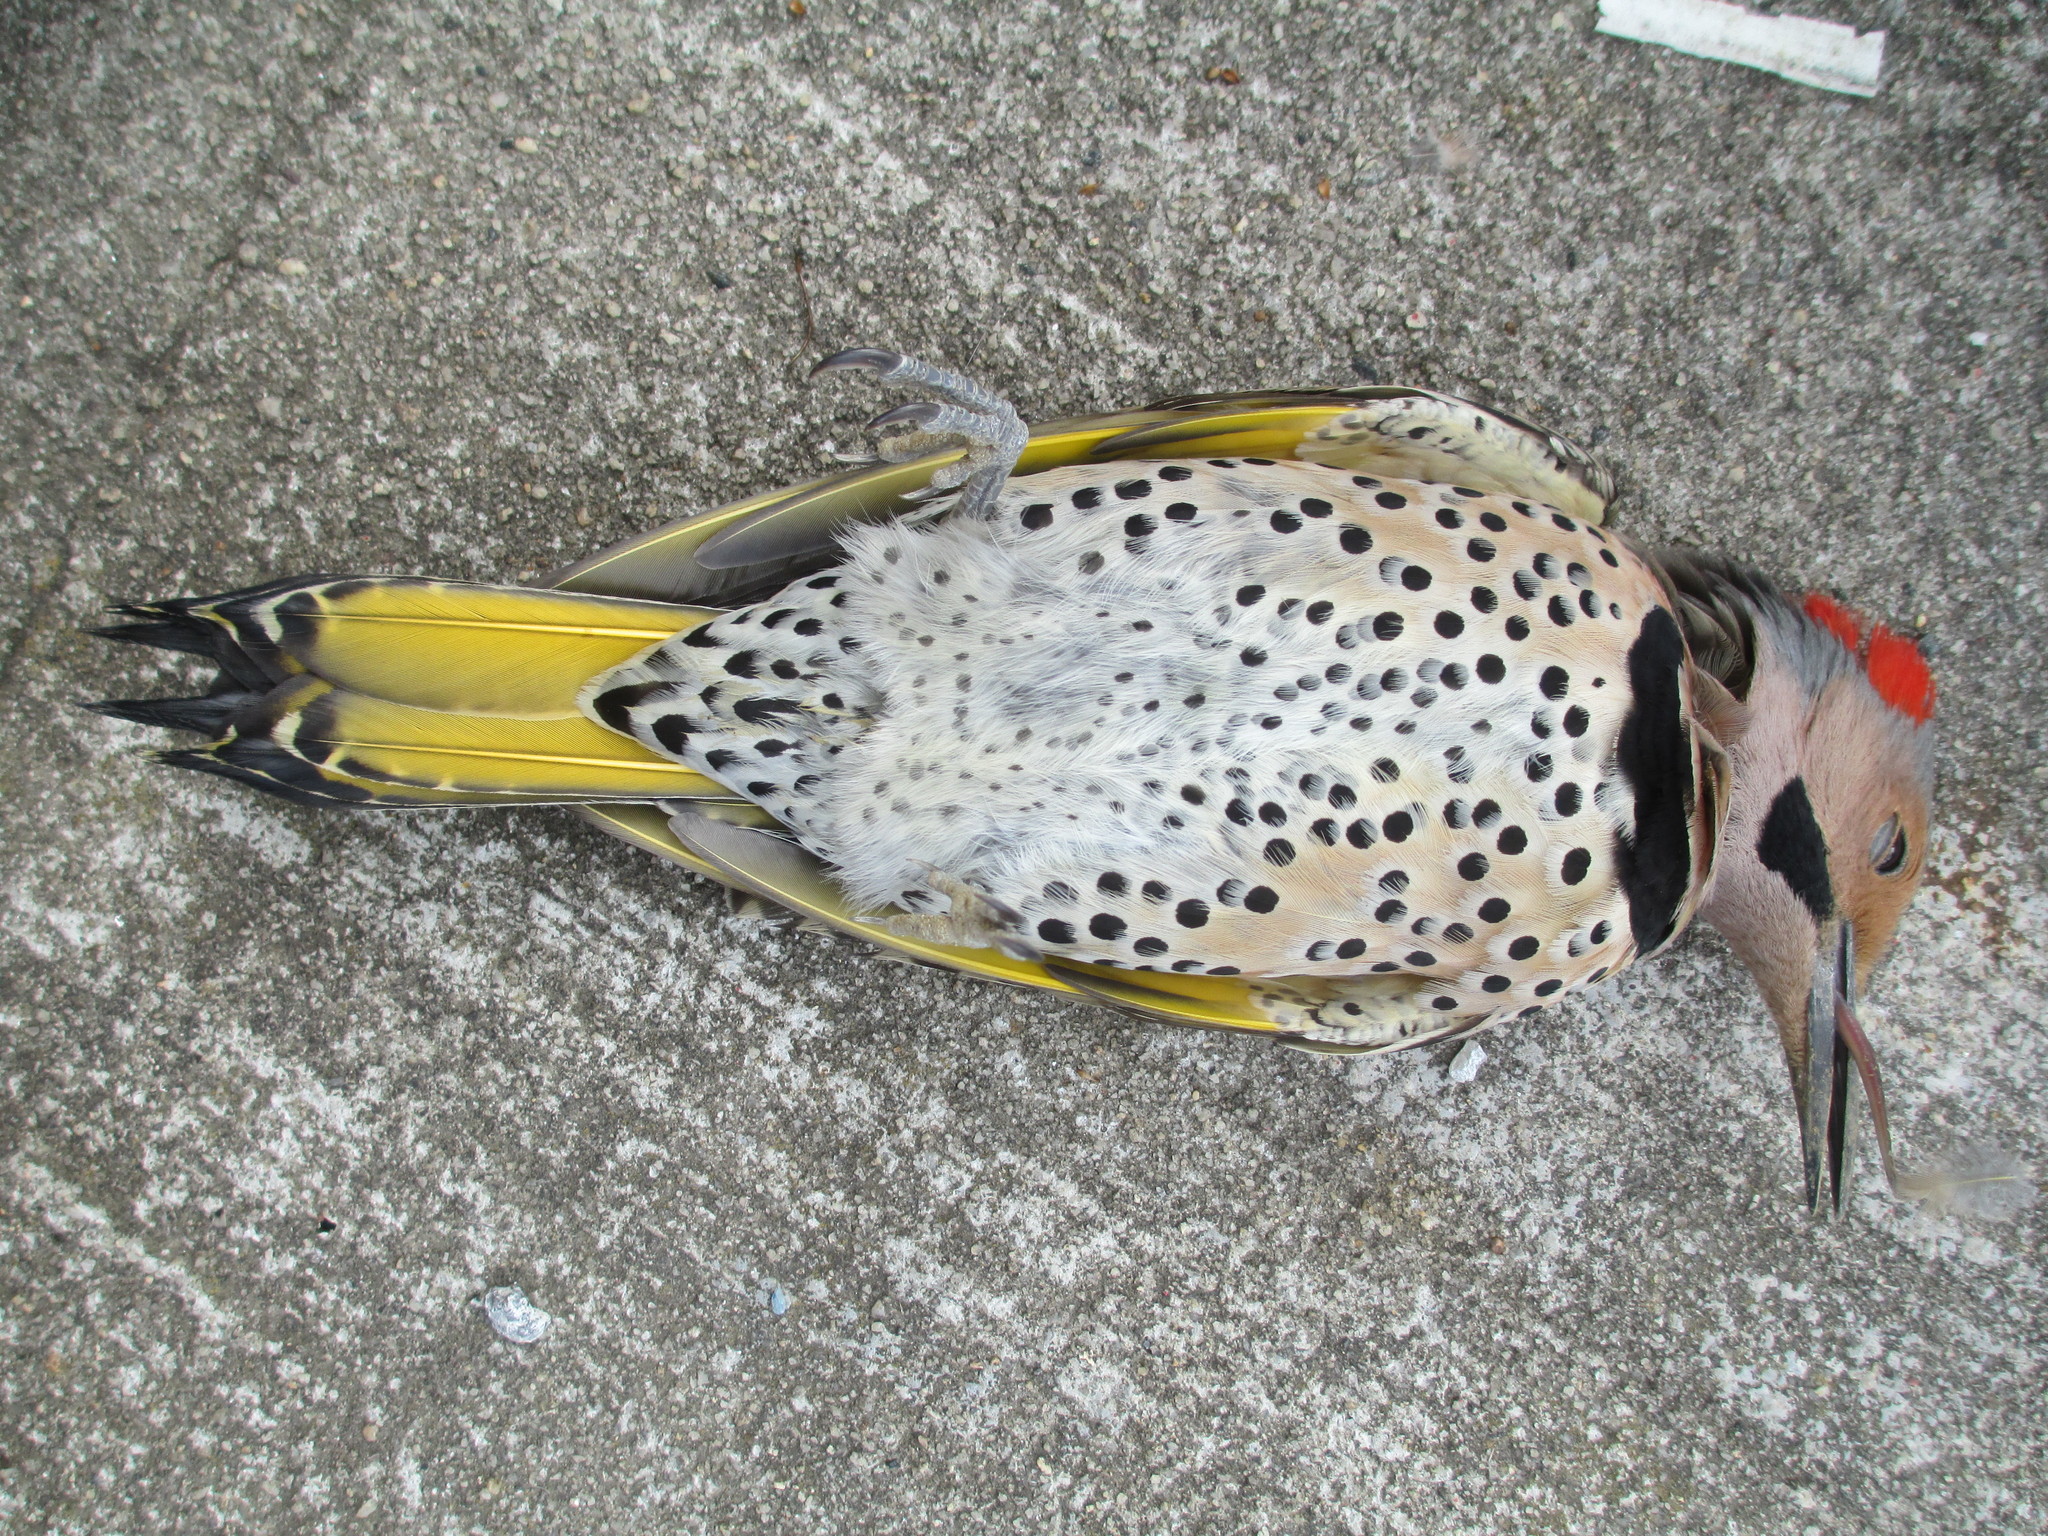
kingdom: Animalia
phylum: Chordata
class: Aves
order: Piciformes
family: Picidae
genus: Colaptes
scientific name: Colaptes auratus
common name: Northern flicker
